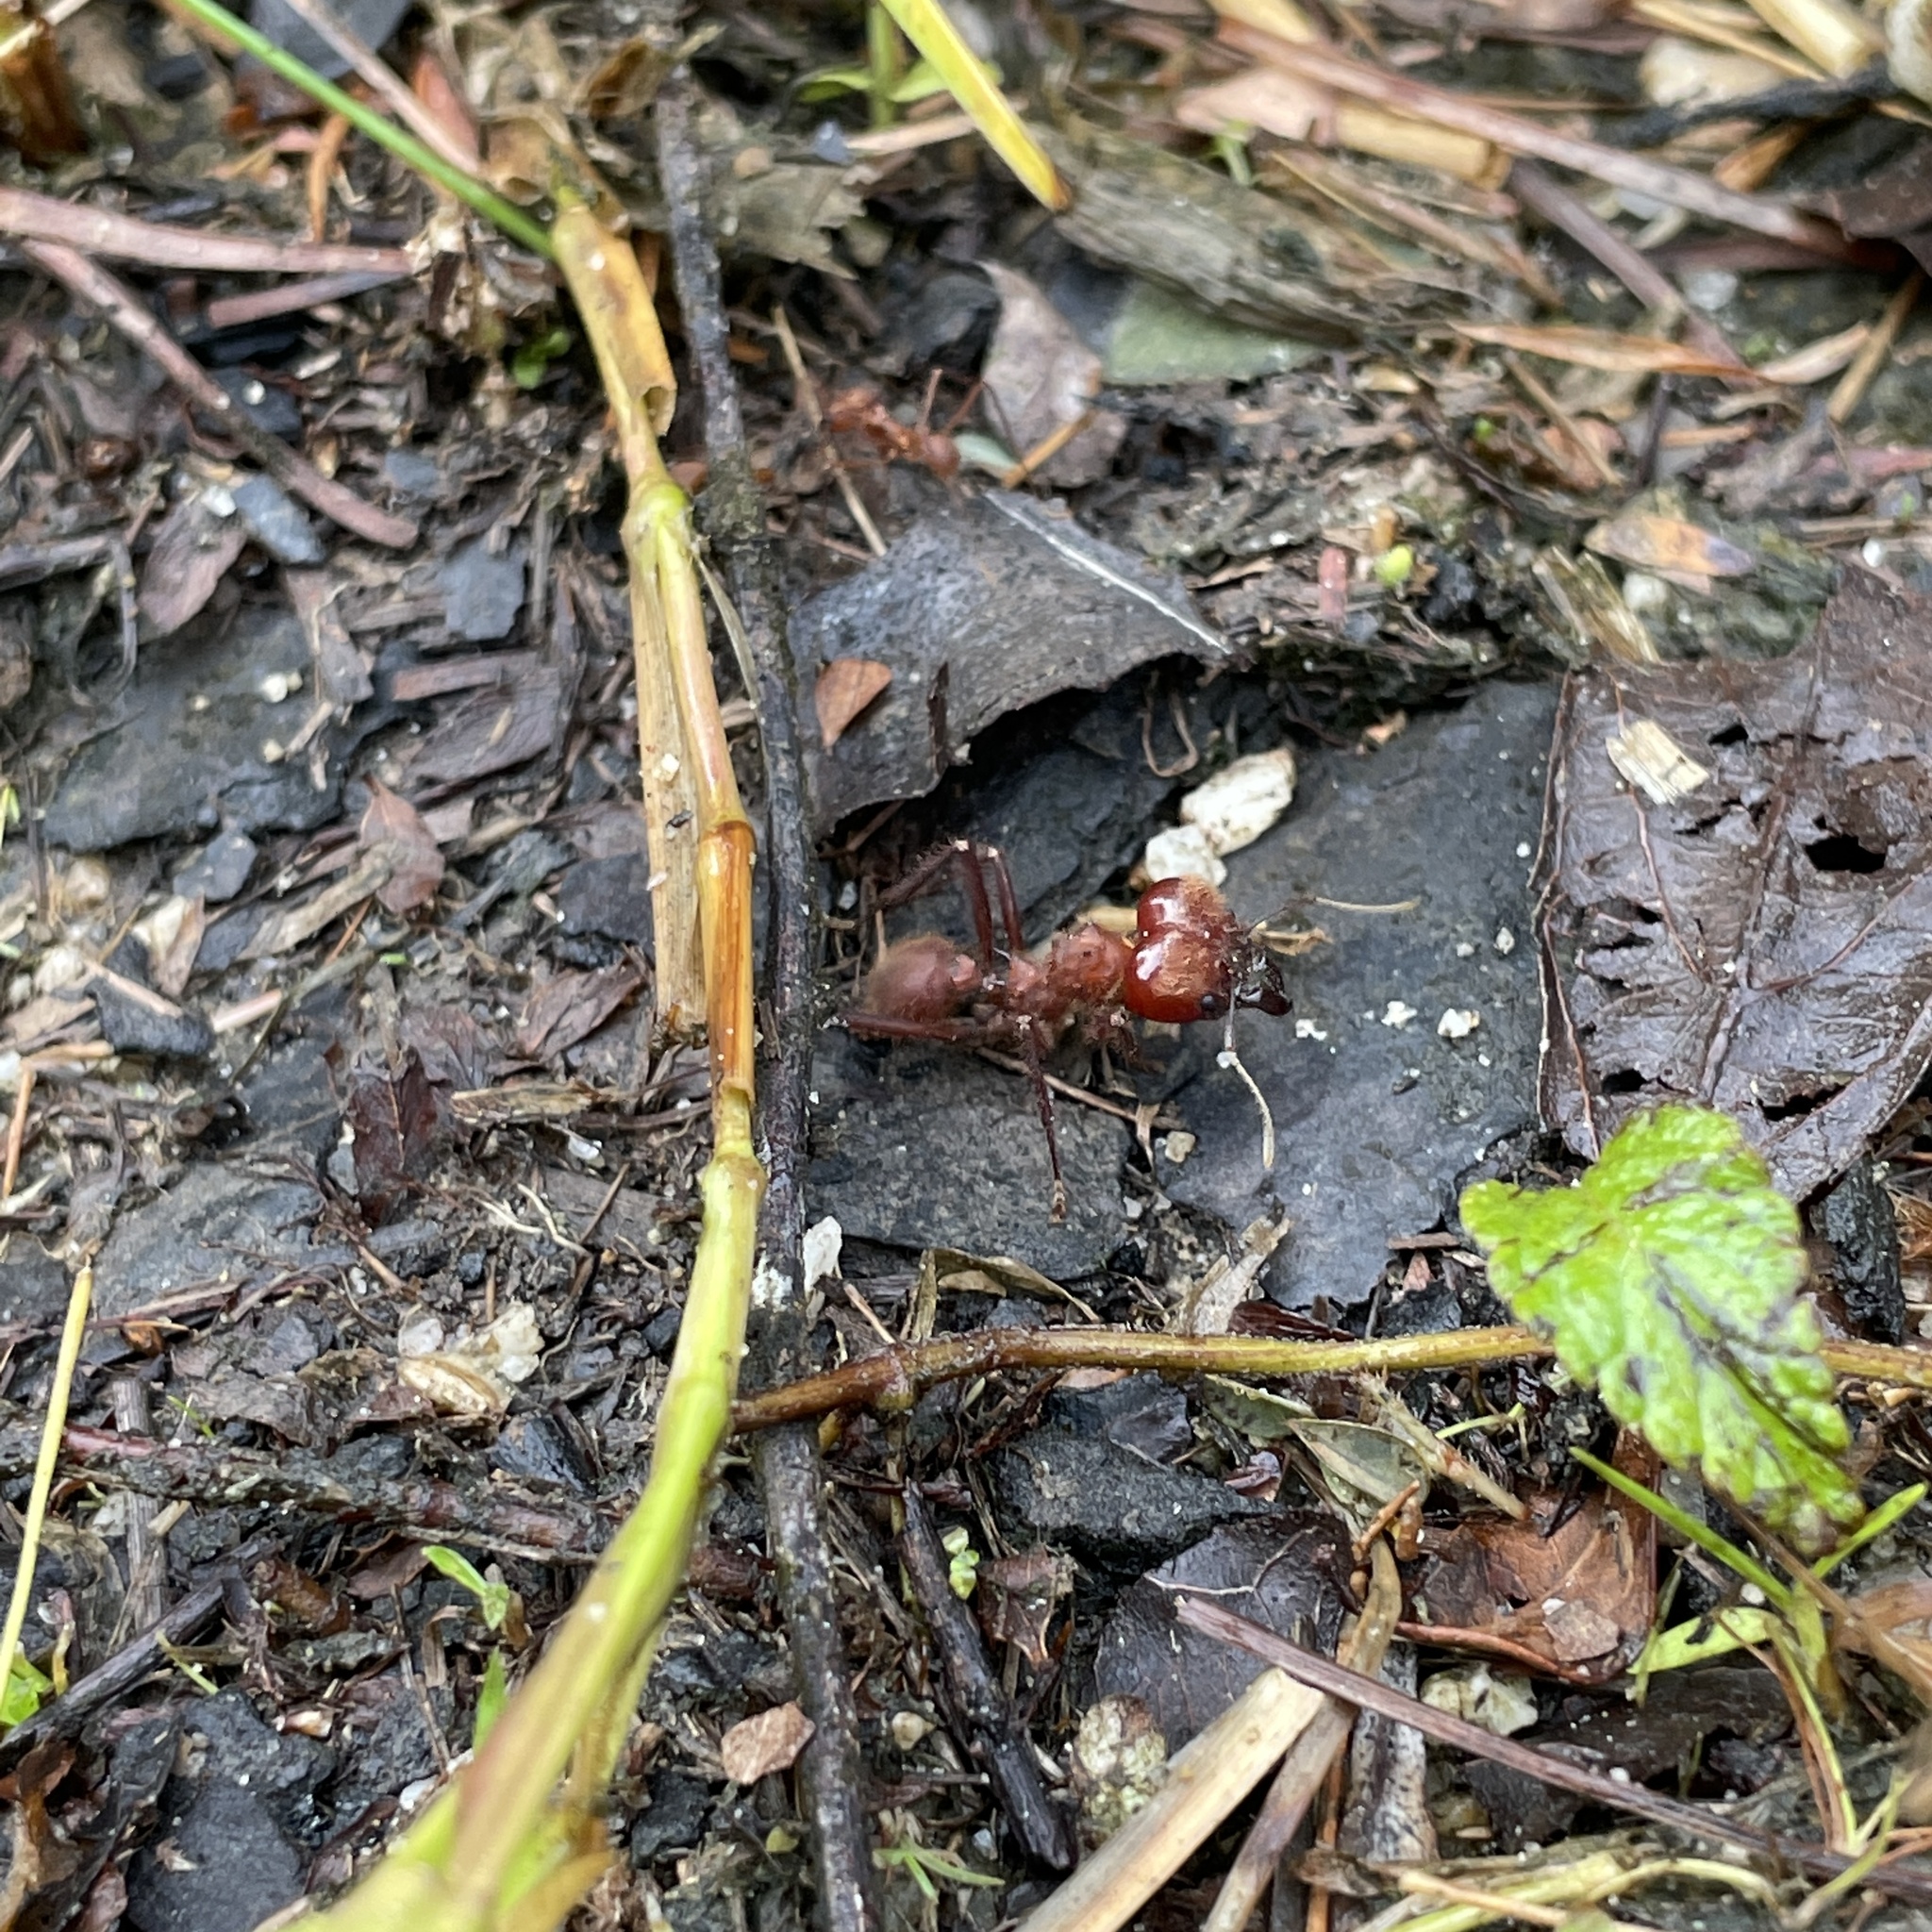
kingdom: Animalia
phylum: Arthropoda
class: Insecta
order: Hymenoptera
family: Formicidae
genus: Atta
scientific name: Atta cephalotes
